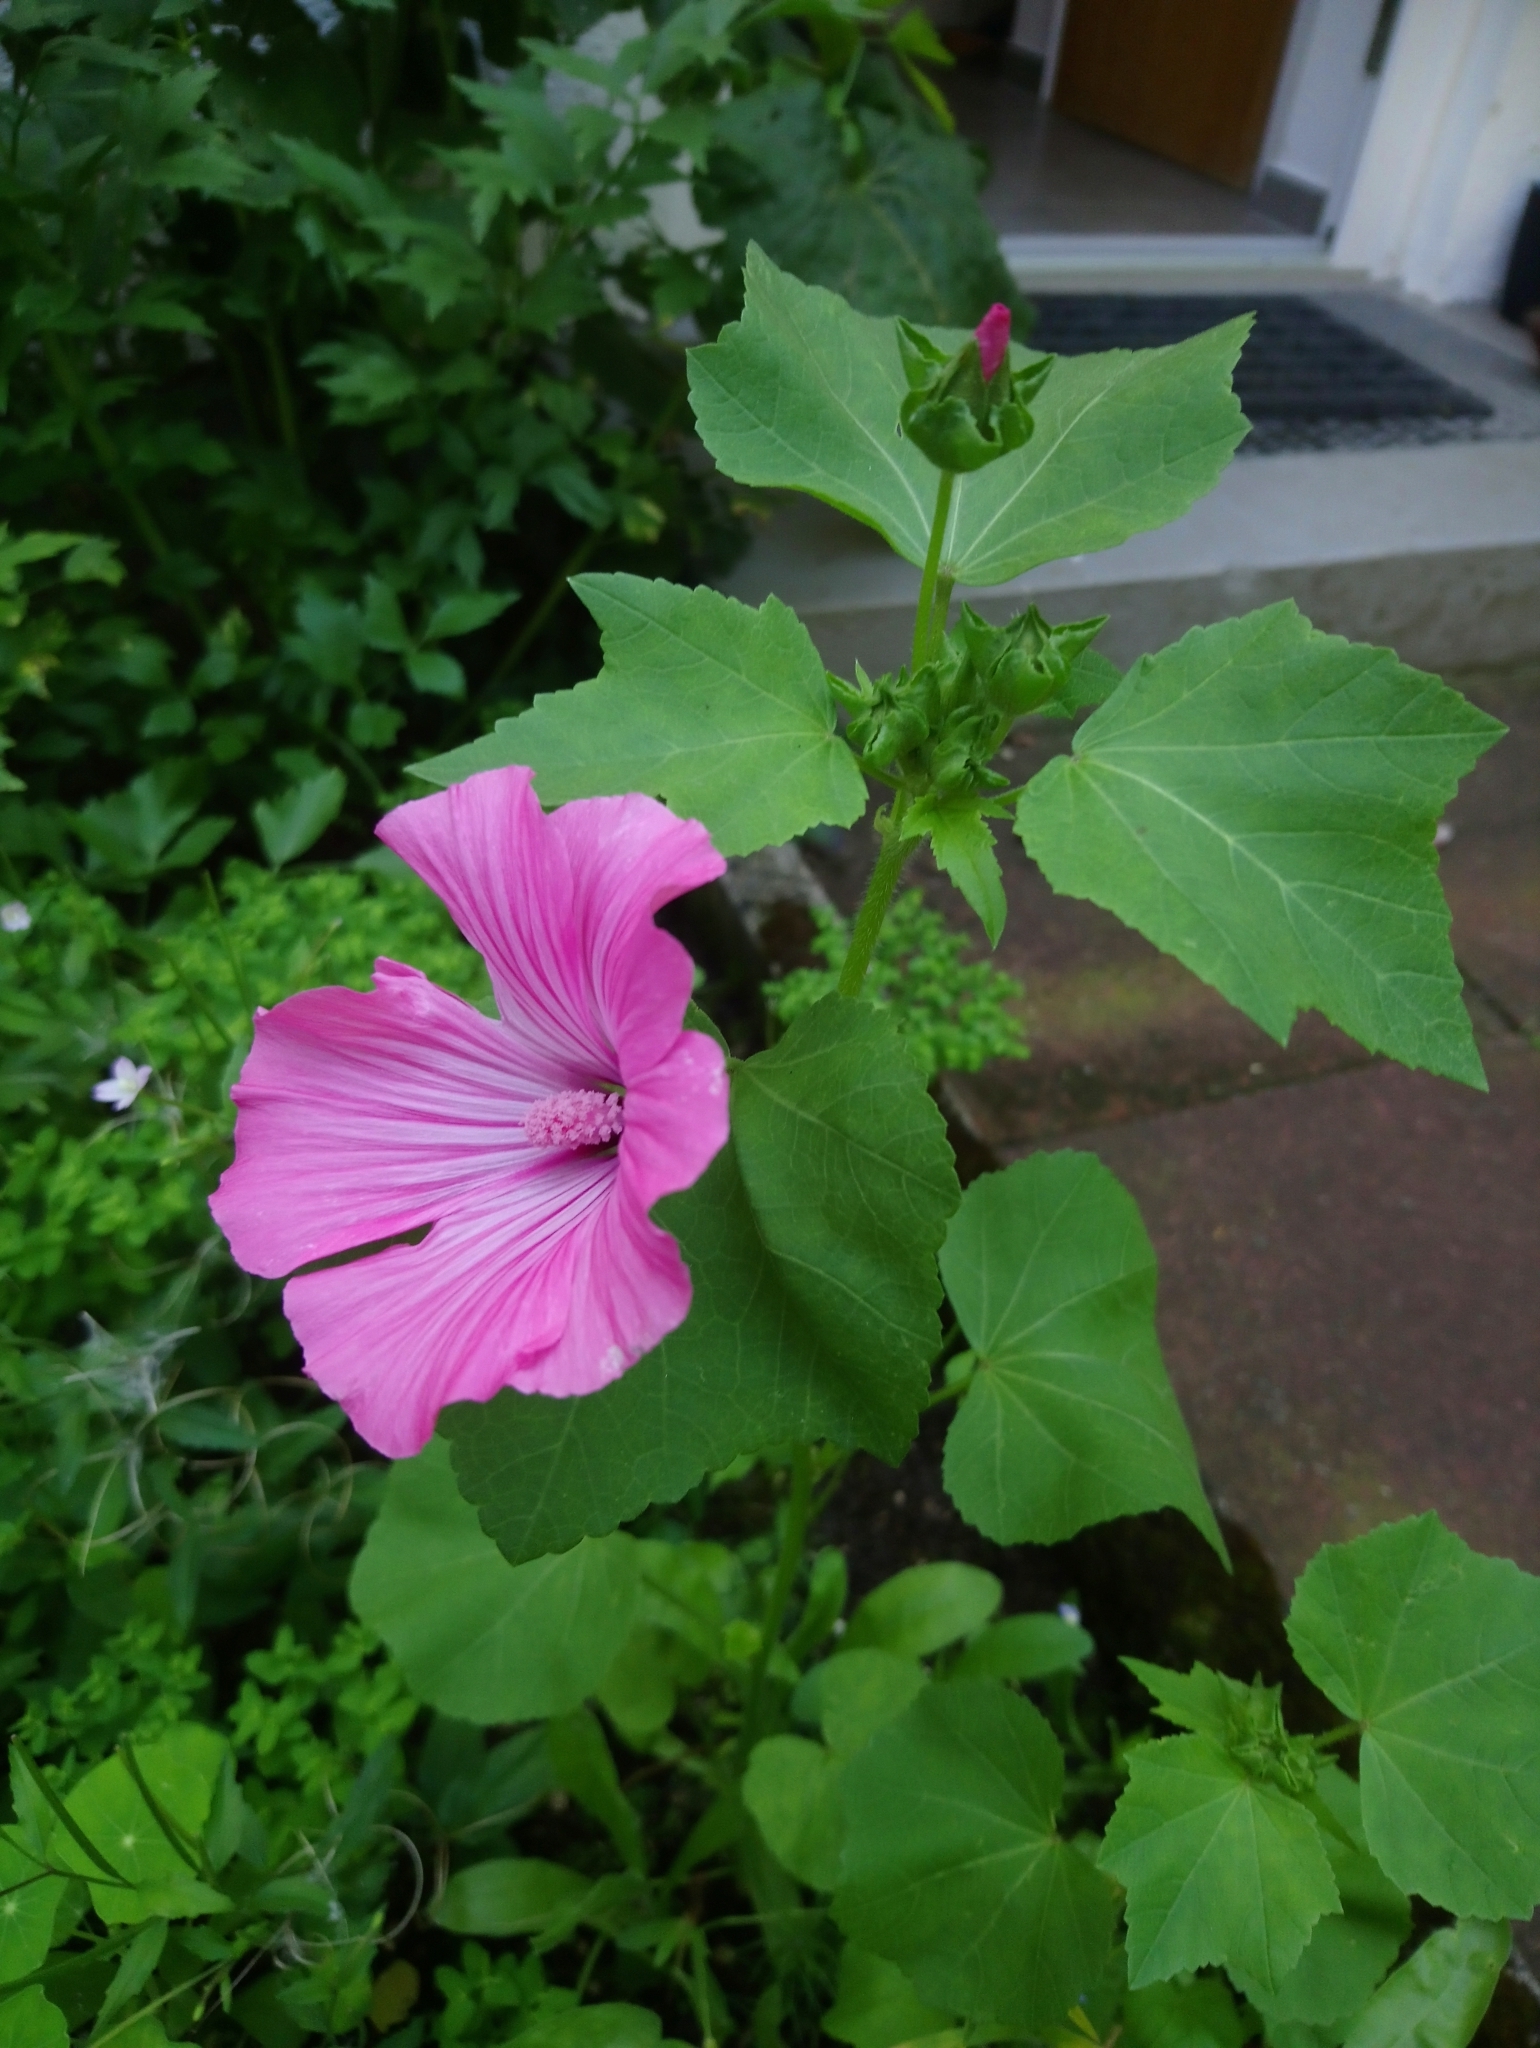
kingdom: Plantae
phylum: Tracheophyta
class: Magnoliopsida
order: Malvales
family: Malvaceae
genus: Malva
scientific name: Malva trimestris
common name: Royal mallow
